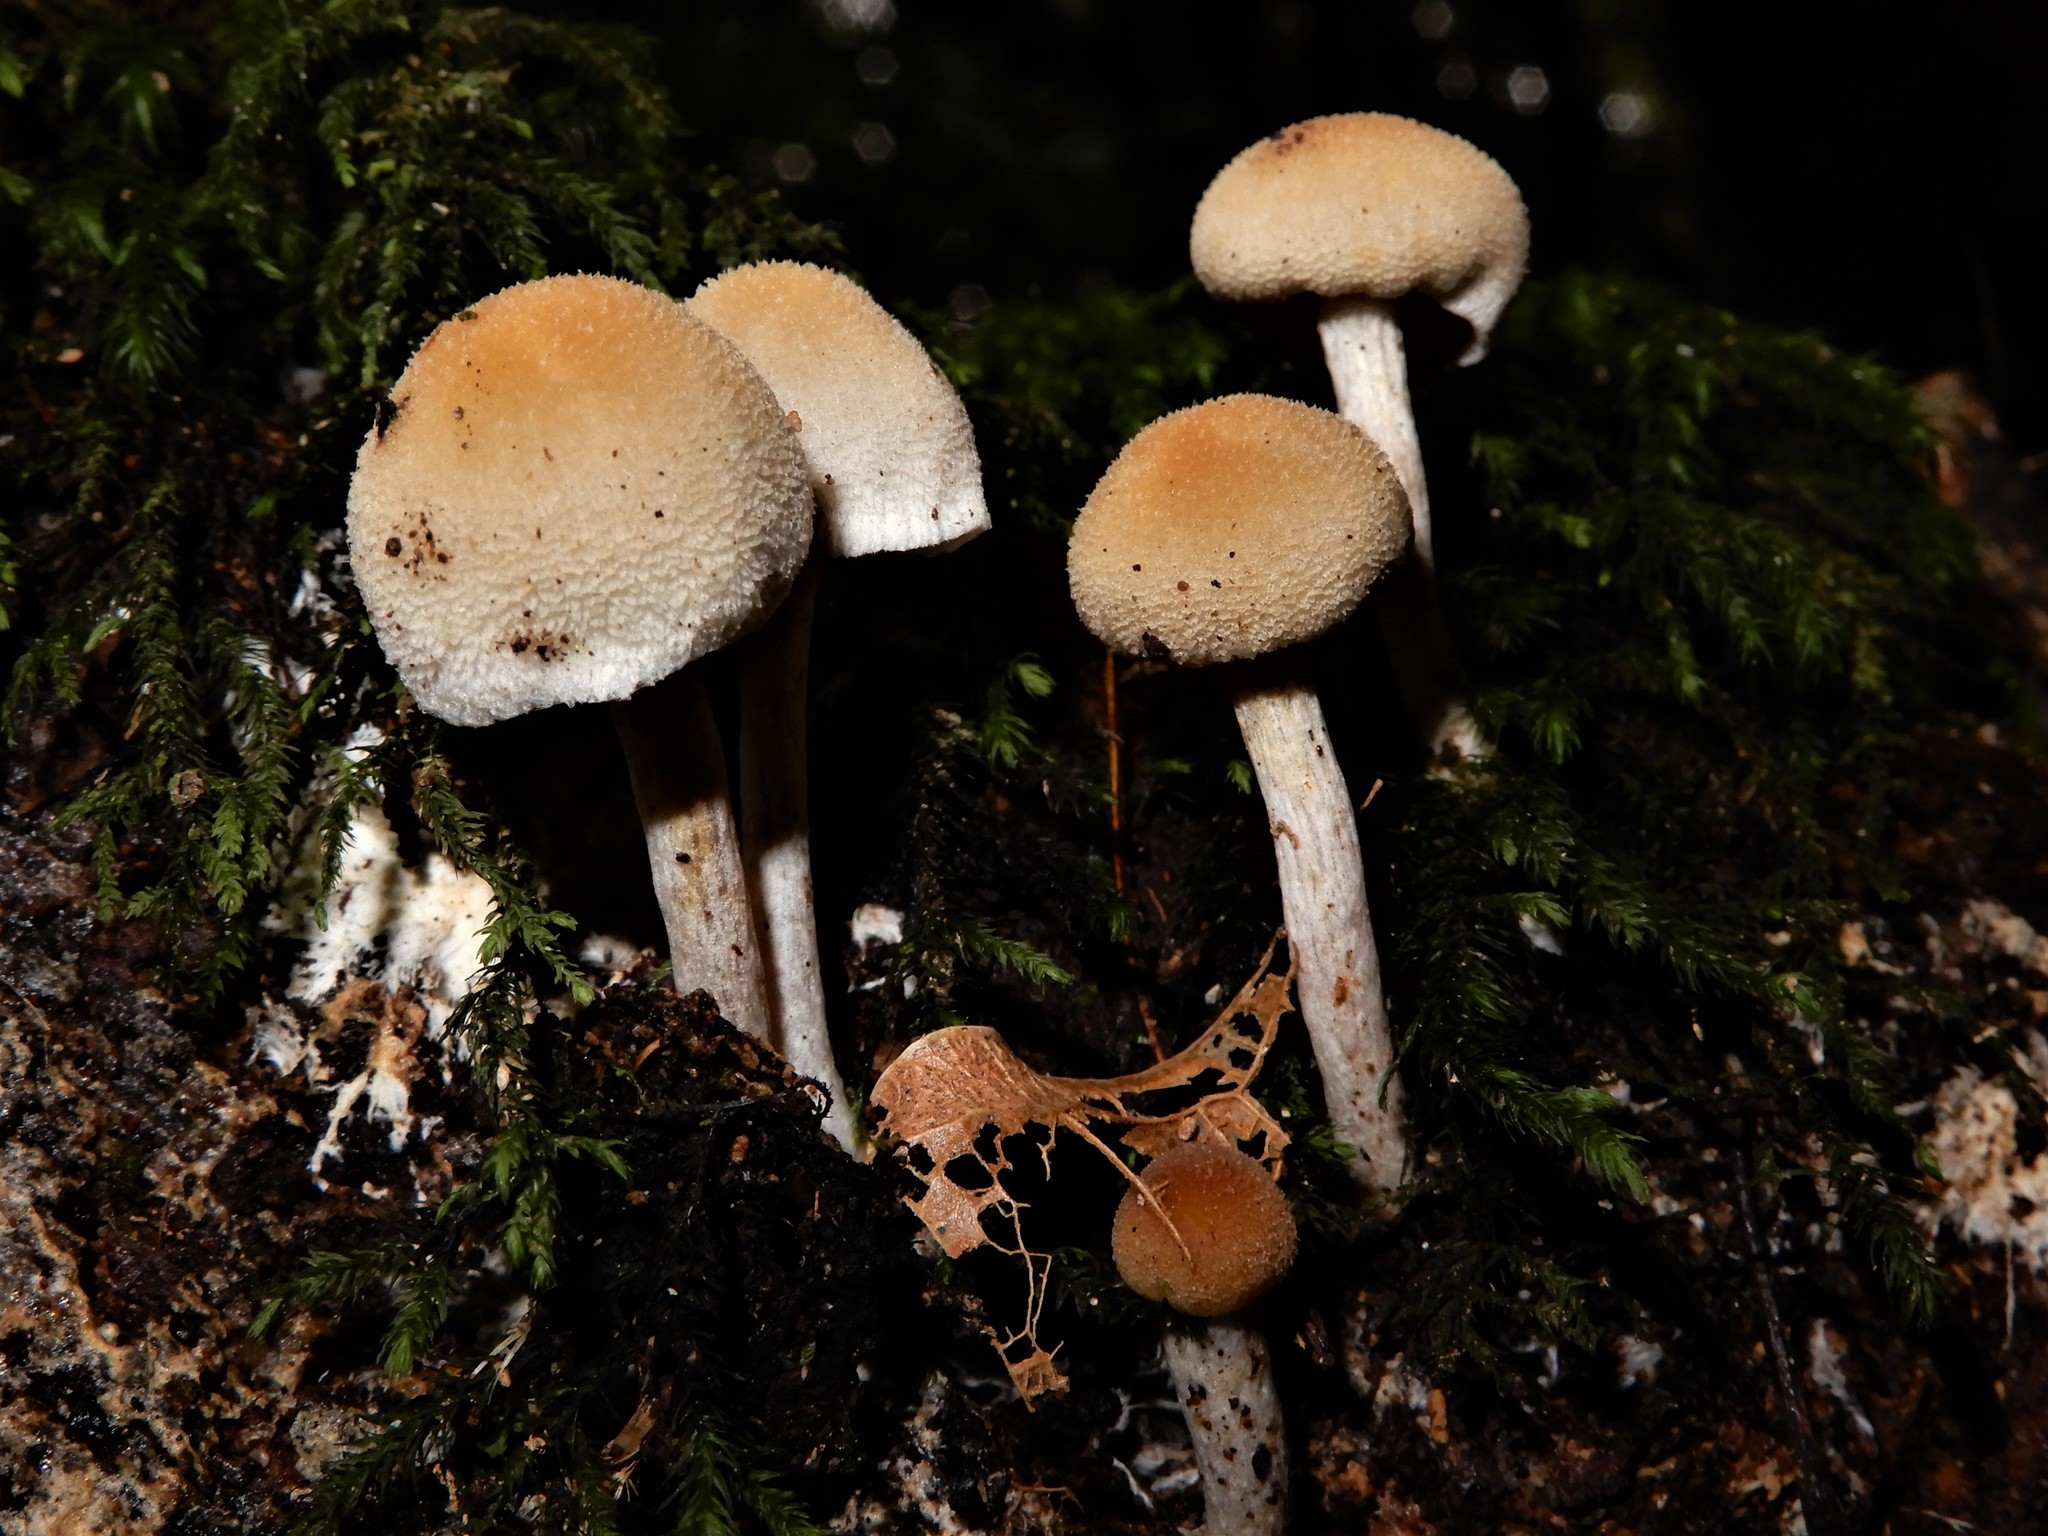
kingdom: Fungi
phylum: Basidiomycota
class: Agaricomycetes
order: Agaricales
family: Bolbitiaceae
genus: Tympanella
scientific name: Tympanella galanthina
